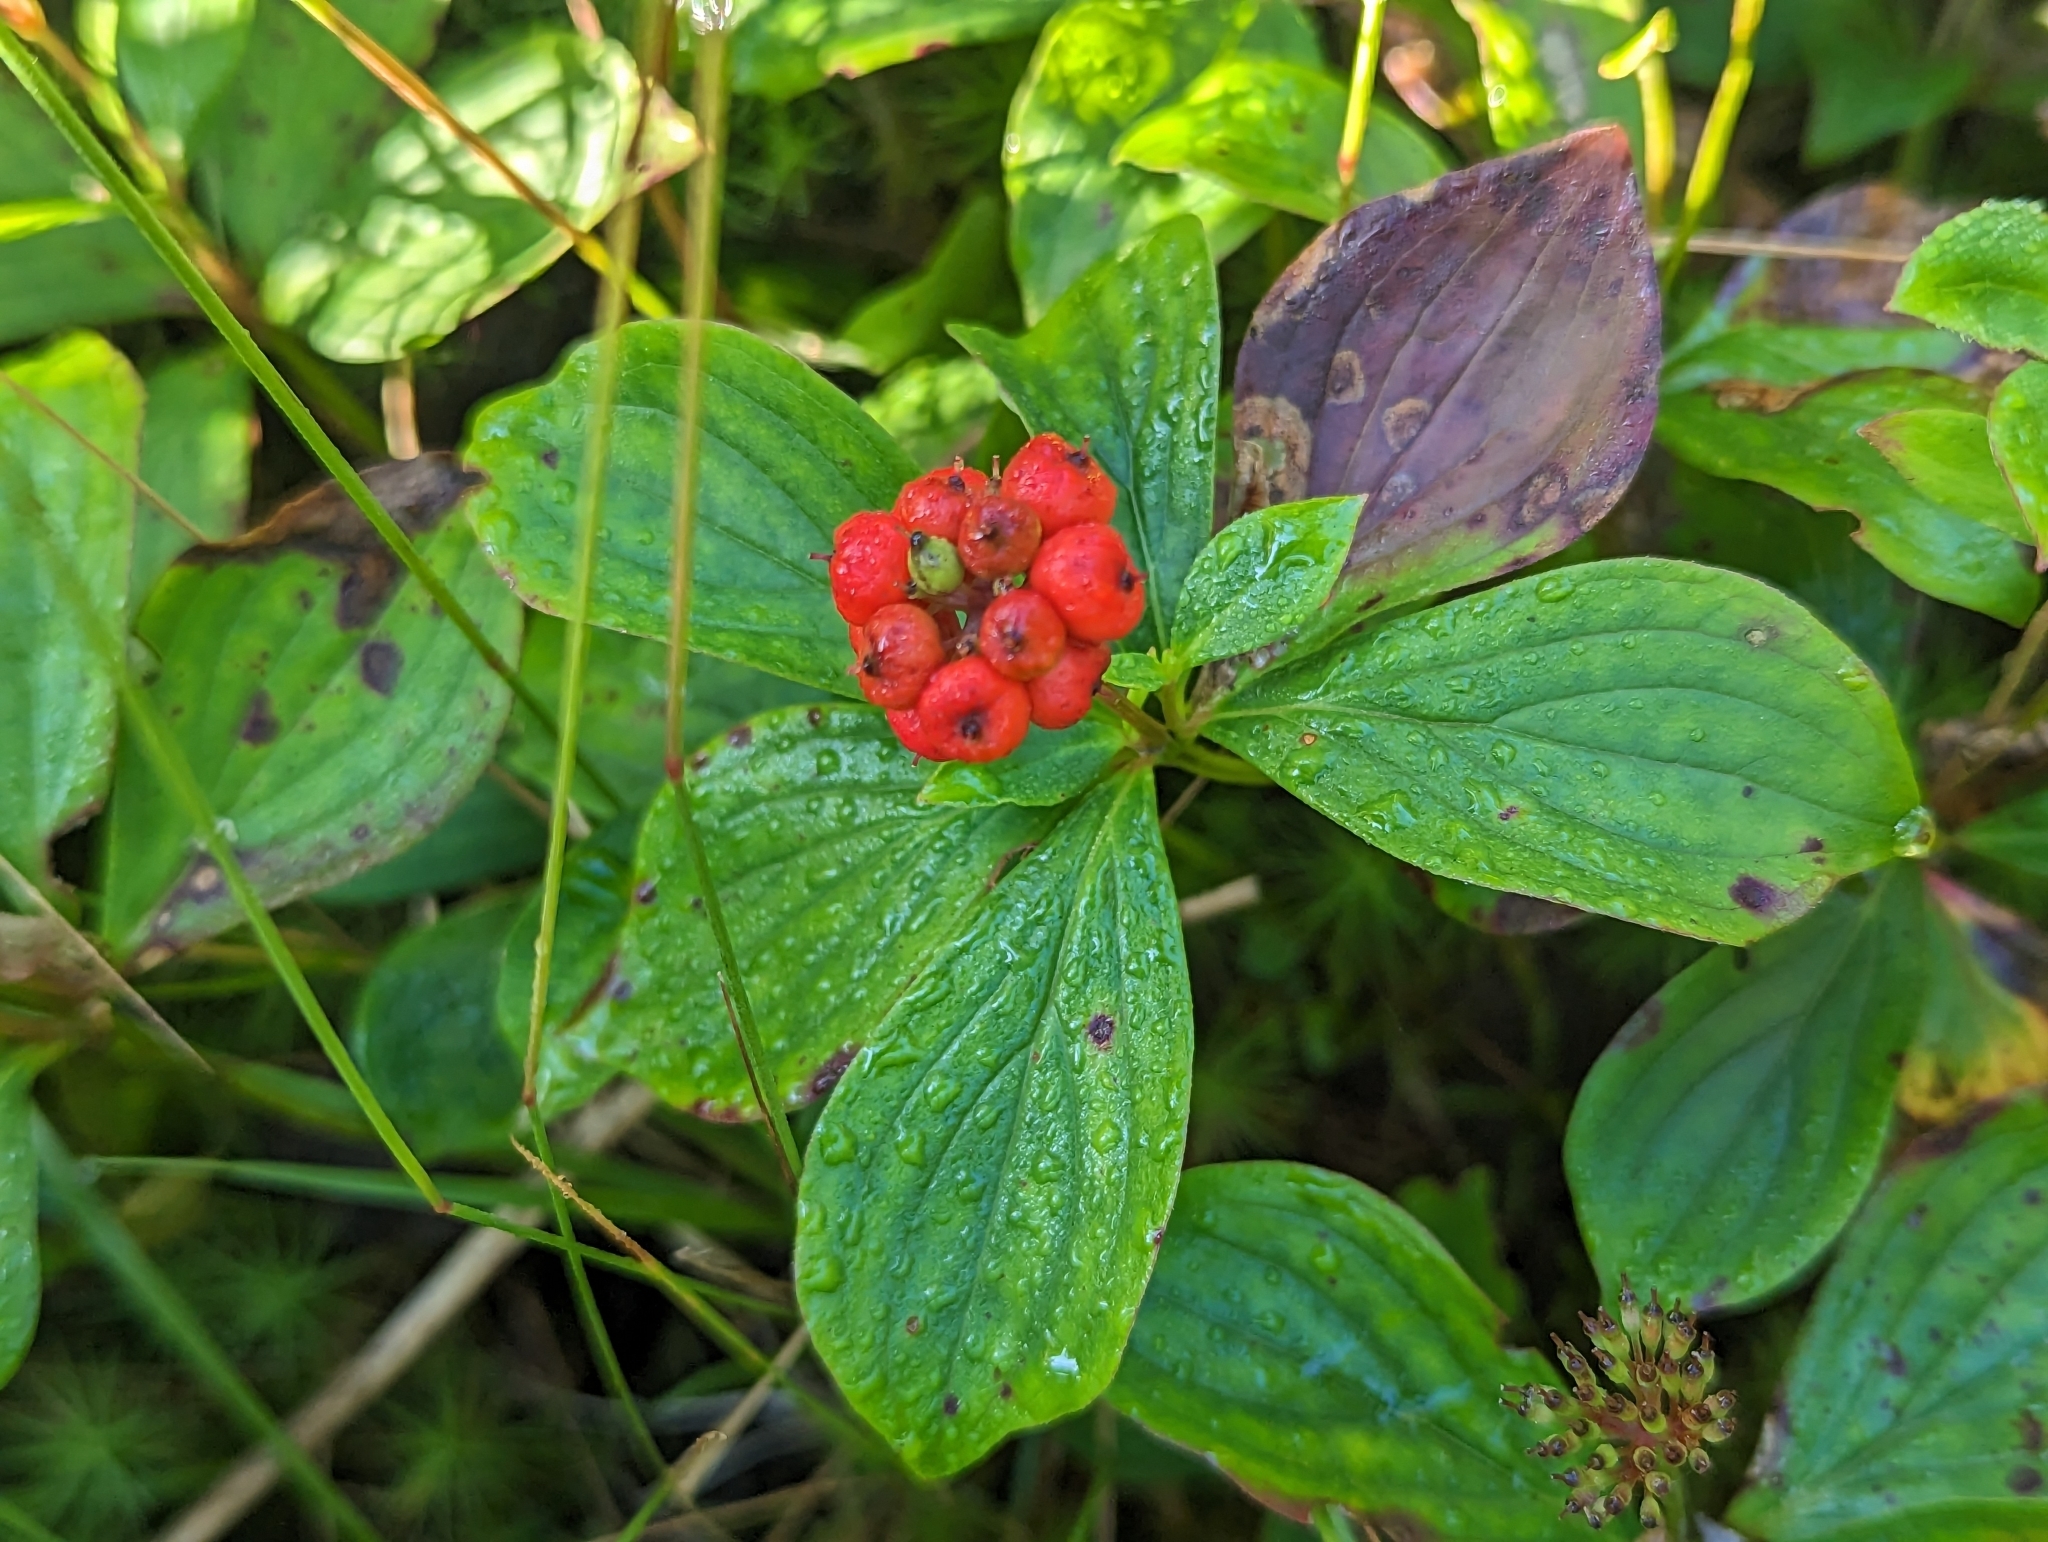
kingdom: Plantae
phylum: Tracheophyta
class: Magnoliopsida
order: Cornales
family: Cornaceae
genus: Cornus
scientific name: Cornus canadensis
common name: Creeping dogwood
